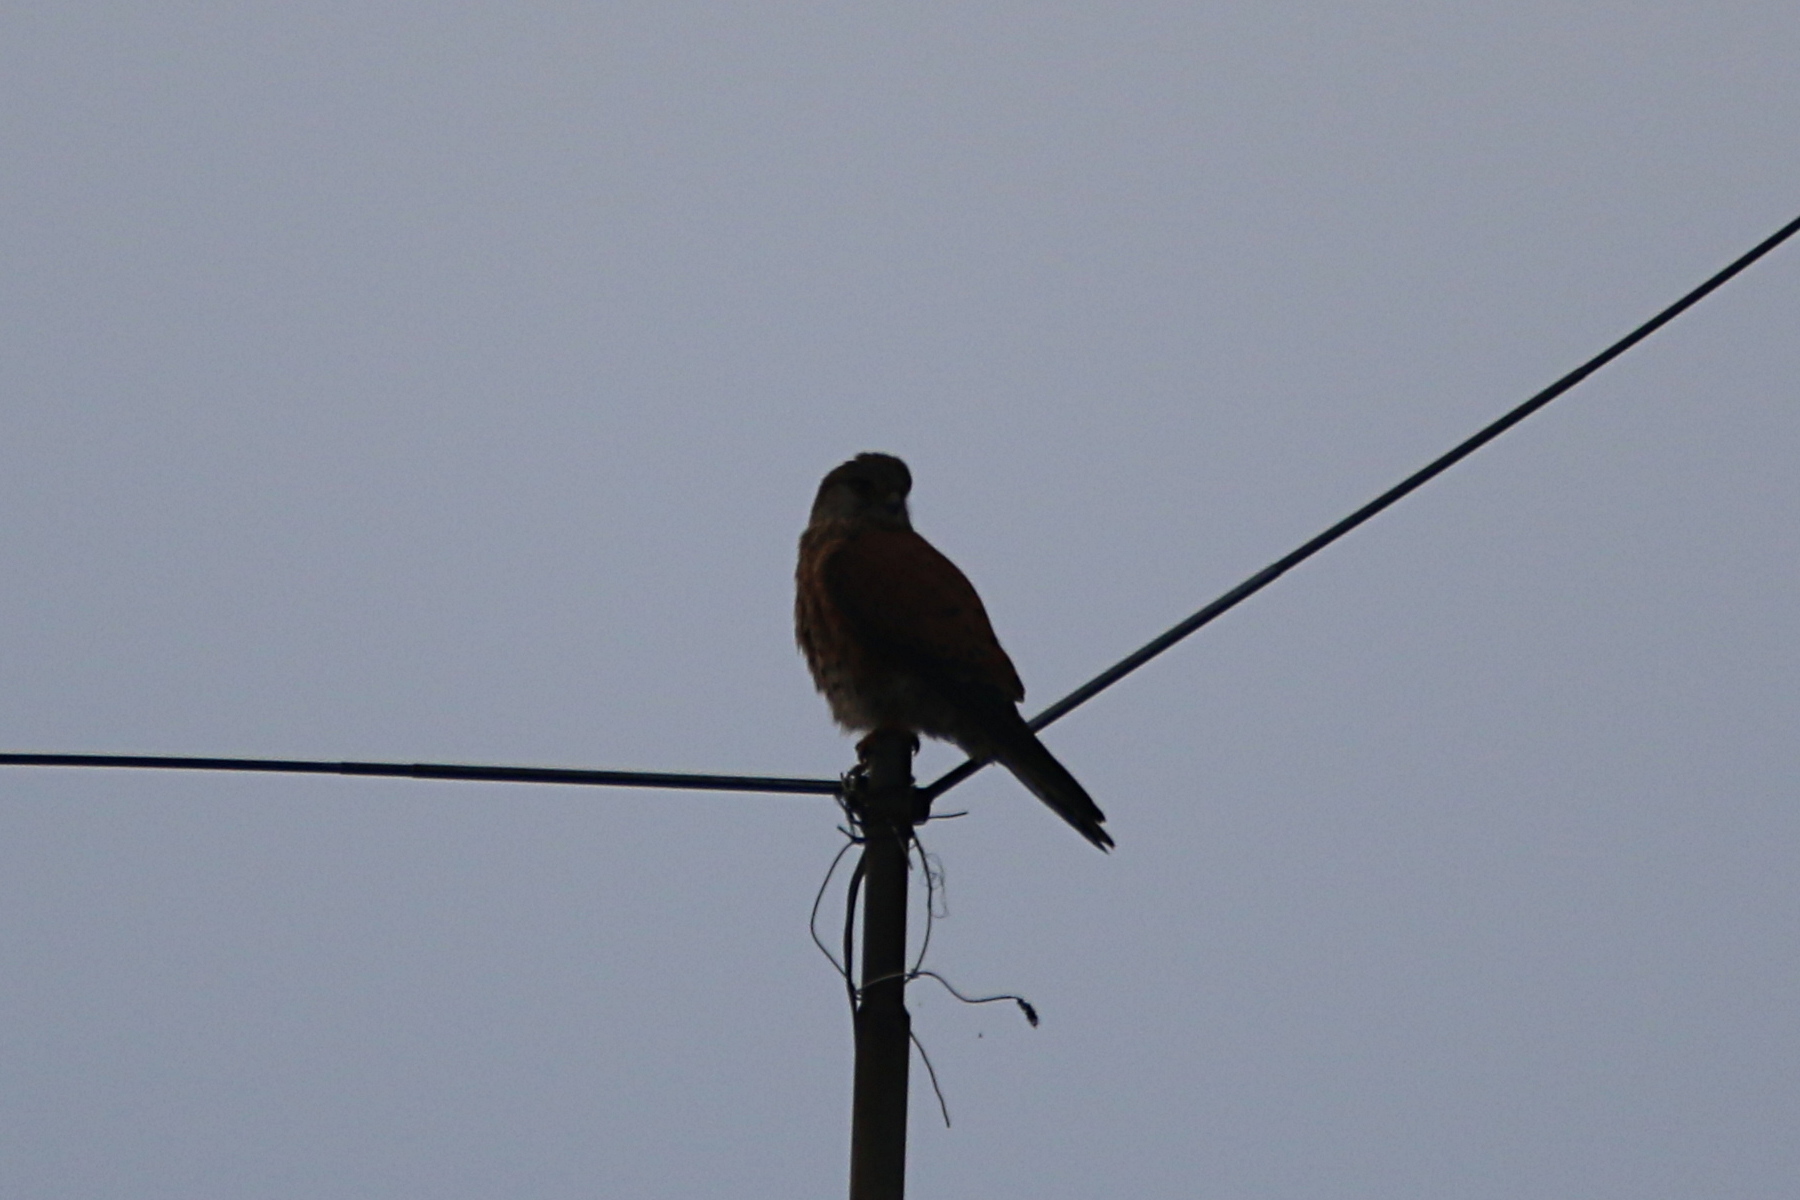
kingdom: Animalia
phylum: Chordata
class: Aves
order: Falconiformes
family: Falconidae
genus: Falco
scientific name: Falco newtoni
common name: Malagasy kestrel
